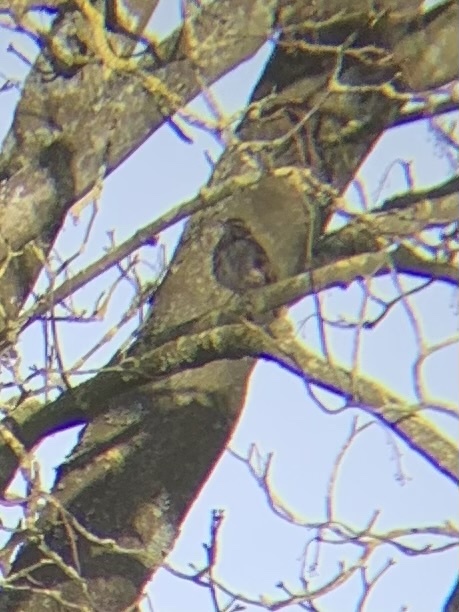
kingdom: Animalia
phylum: Chordata
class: Aves
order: Passeriformes
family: Turdidae
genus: Turdus
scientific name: Turdus iliacus
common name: Redwing
